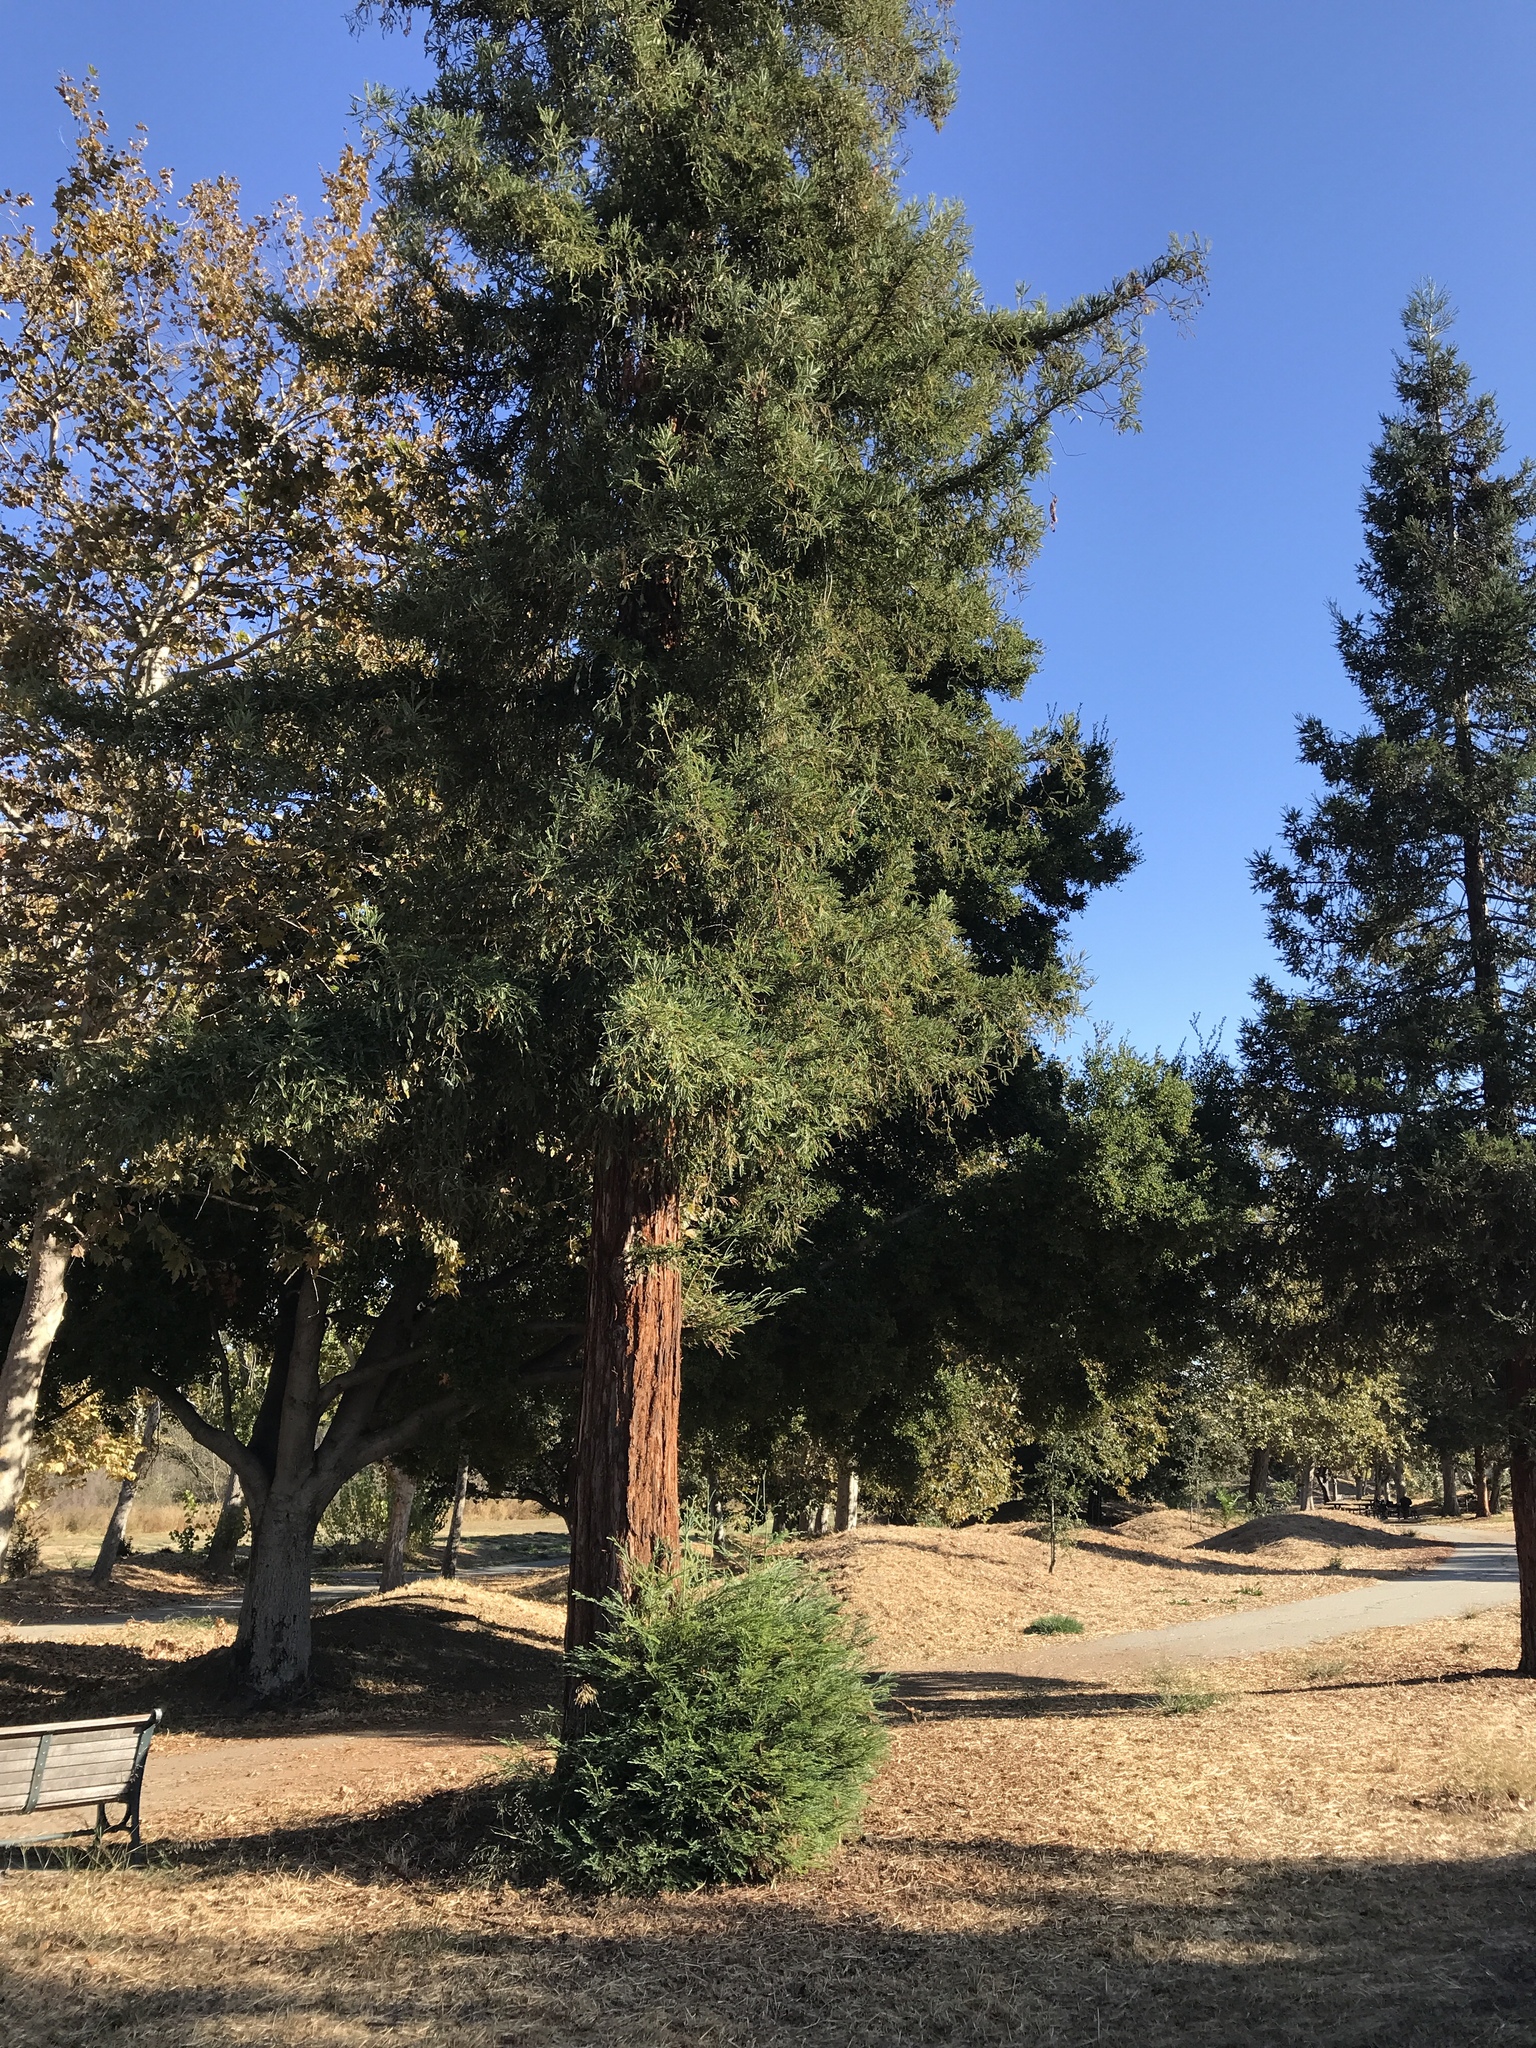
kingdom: Plantae
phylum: Tracheophyta
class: Pinopsida
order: Pinales
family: Cupressaceae
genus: Sequoia
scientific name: Sequoia sempervirens
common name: Coast redwood
